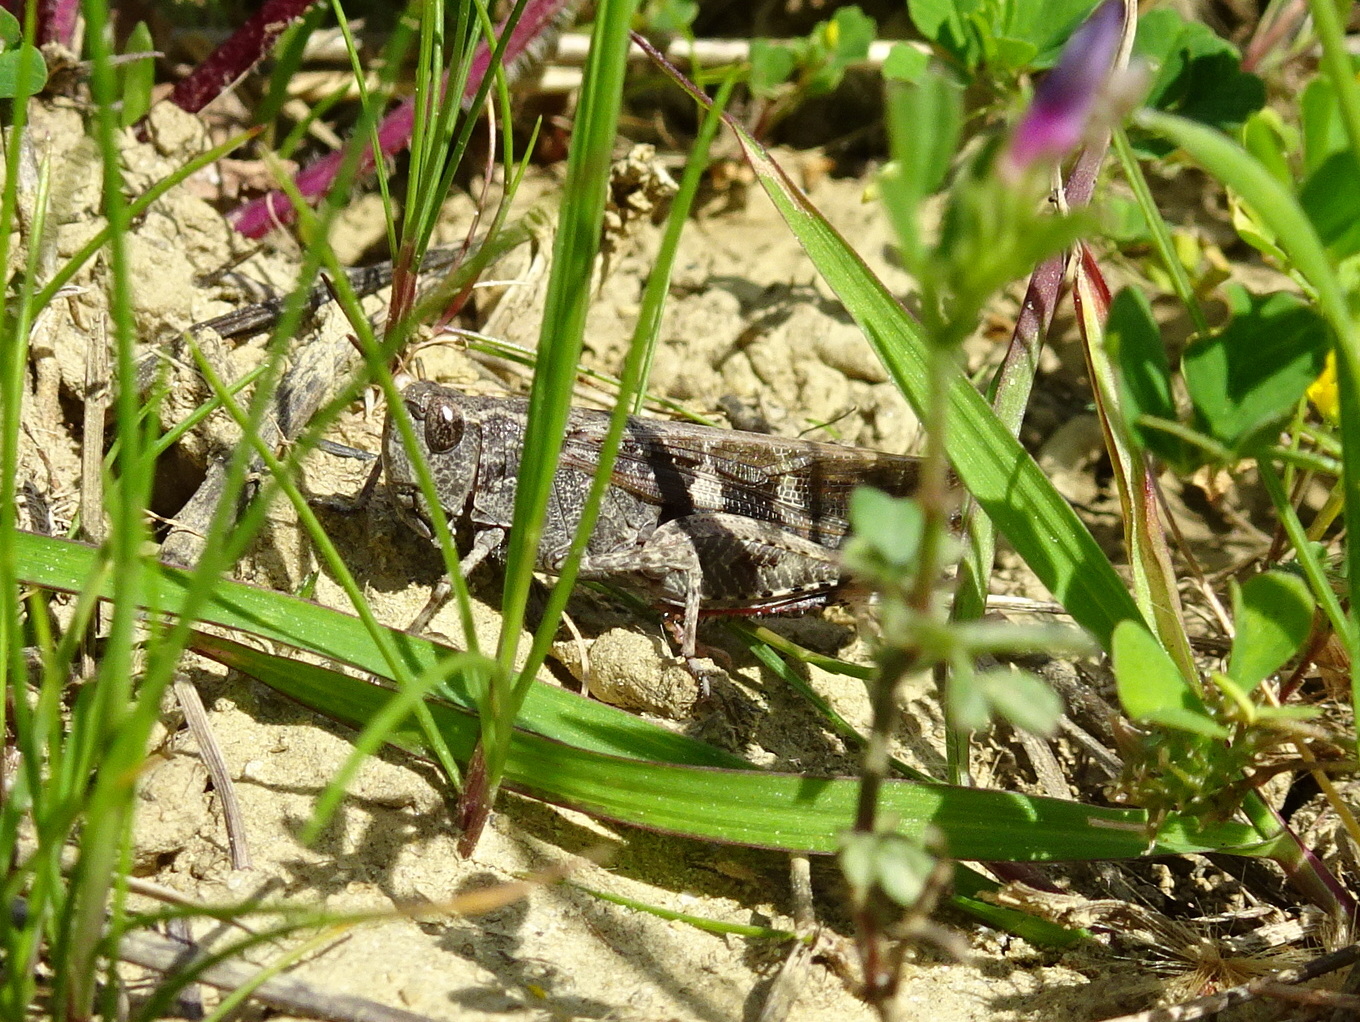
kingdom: Animalia
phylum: Arthropoda
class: Insecta
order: Orthoptera
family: Acrididae
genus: Aiolopus
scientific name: Aiolopus strepens
